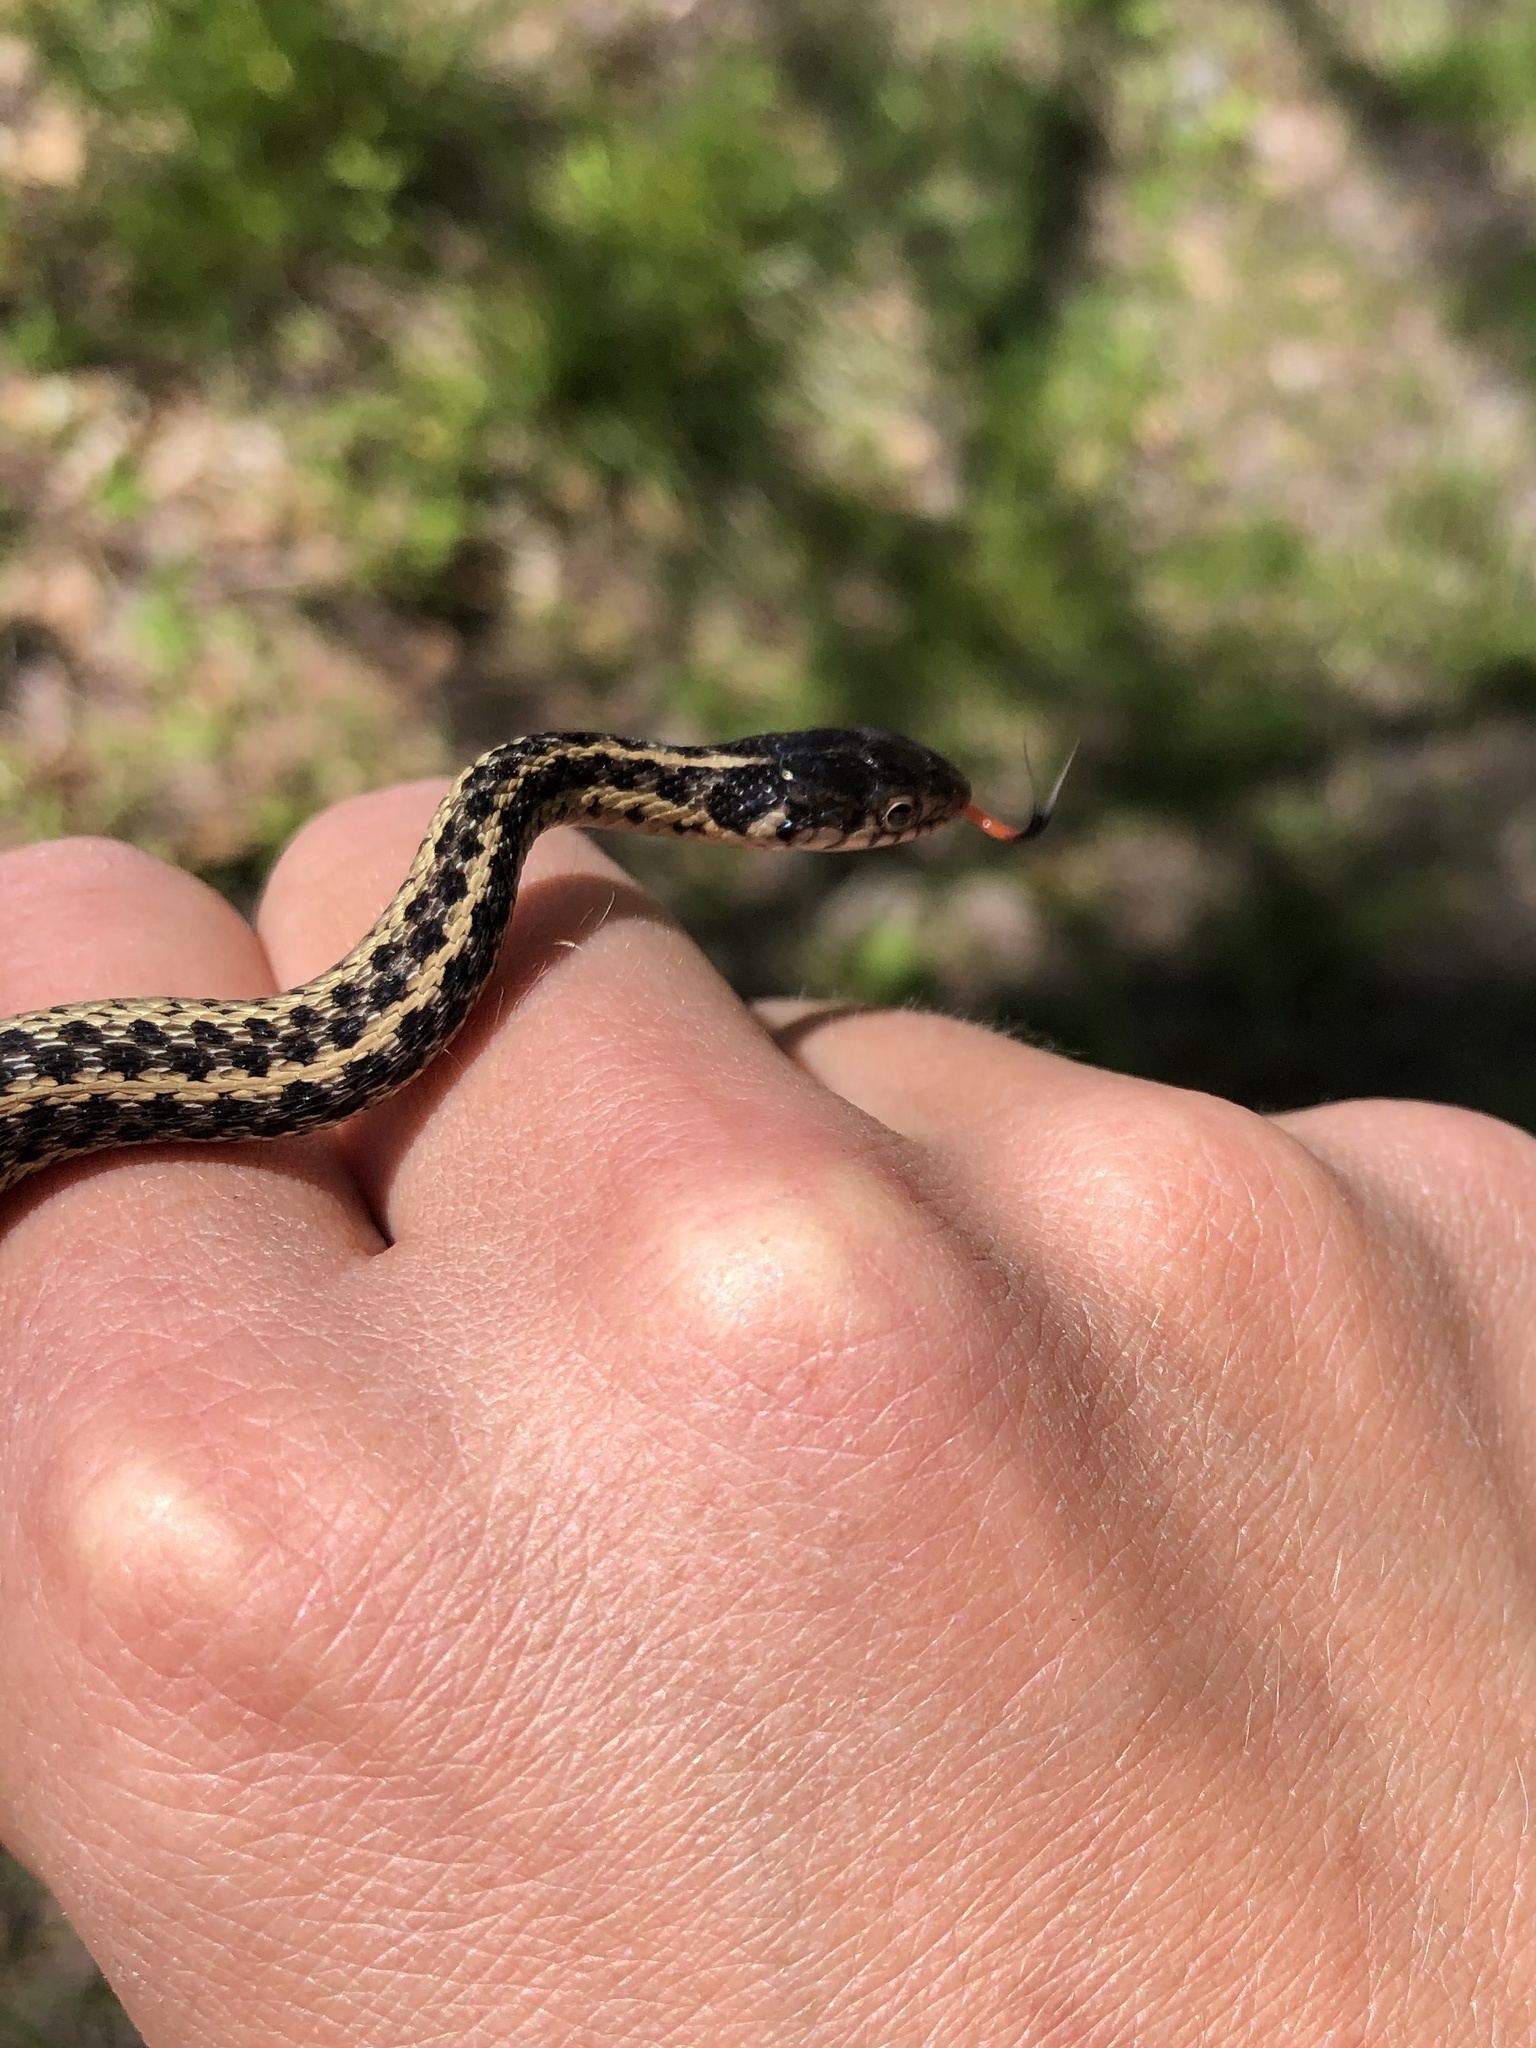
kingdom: Animalia
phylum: Chordata
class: Squamata
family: Colubridae
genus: Thamnophis
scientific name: Thamnophis sirtalis
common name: Common garter snake
